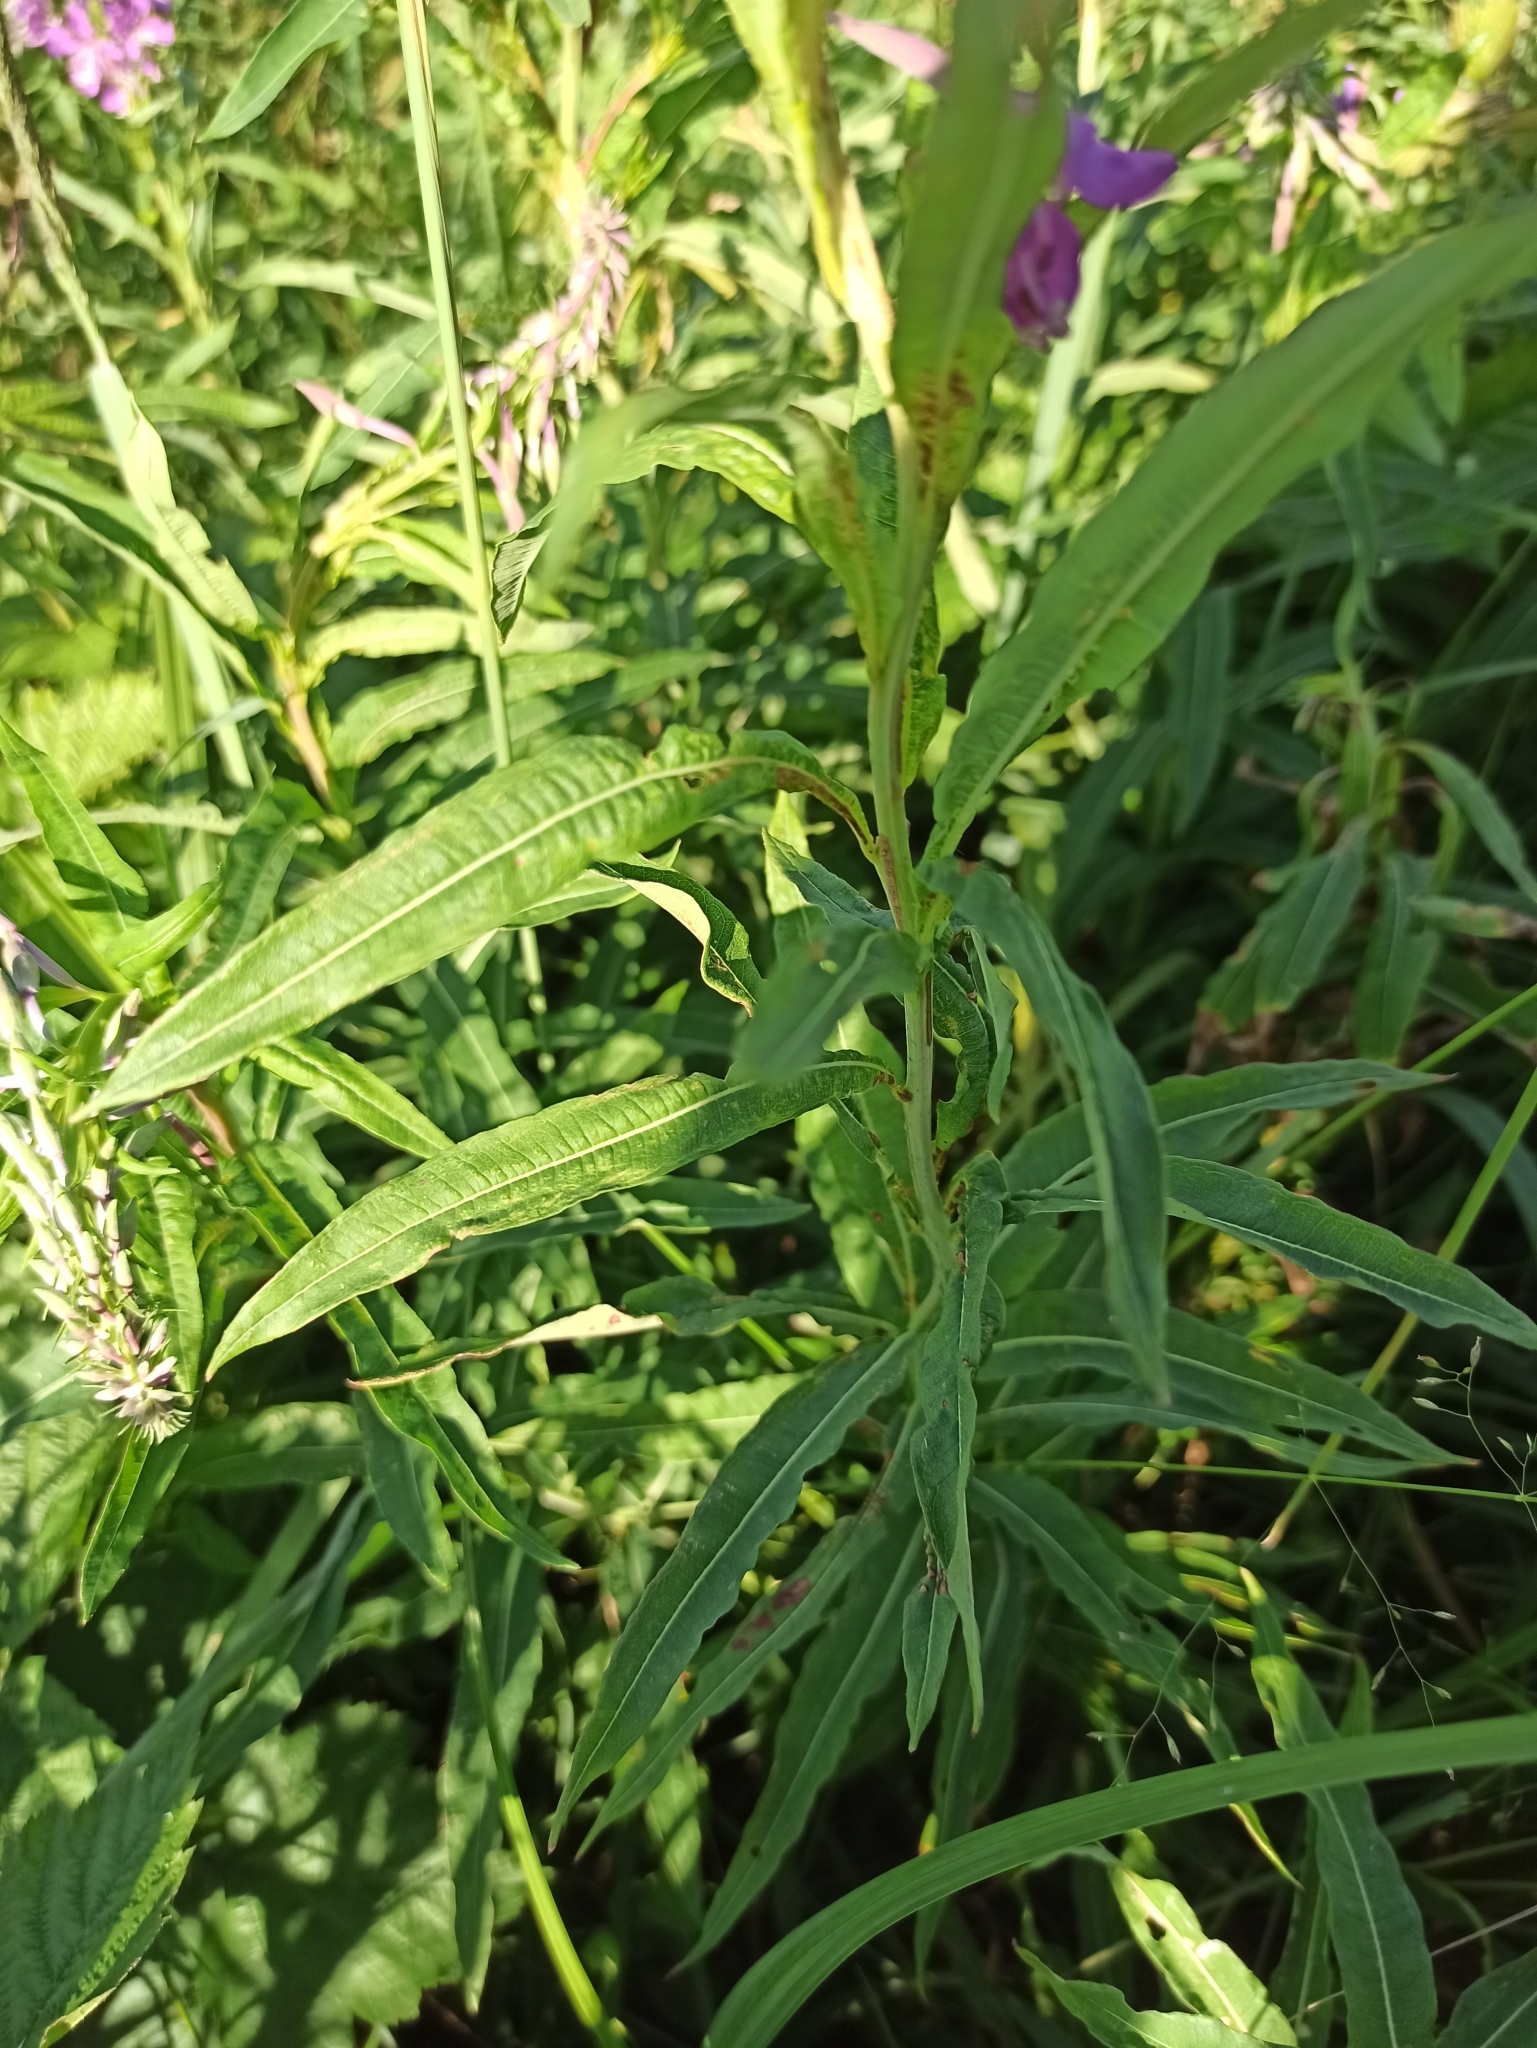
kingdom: Plantae
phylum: Tracheophyta
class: Magnoliopsida
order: Myrtales
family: Onagraceae
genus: Chamaenerion
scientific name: Chamaenerion angustifolium
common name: Fireweed
